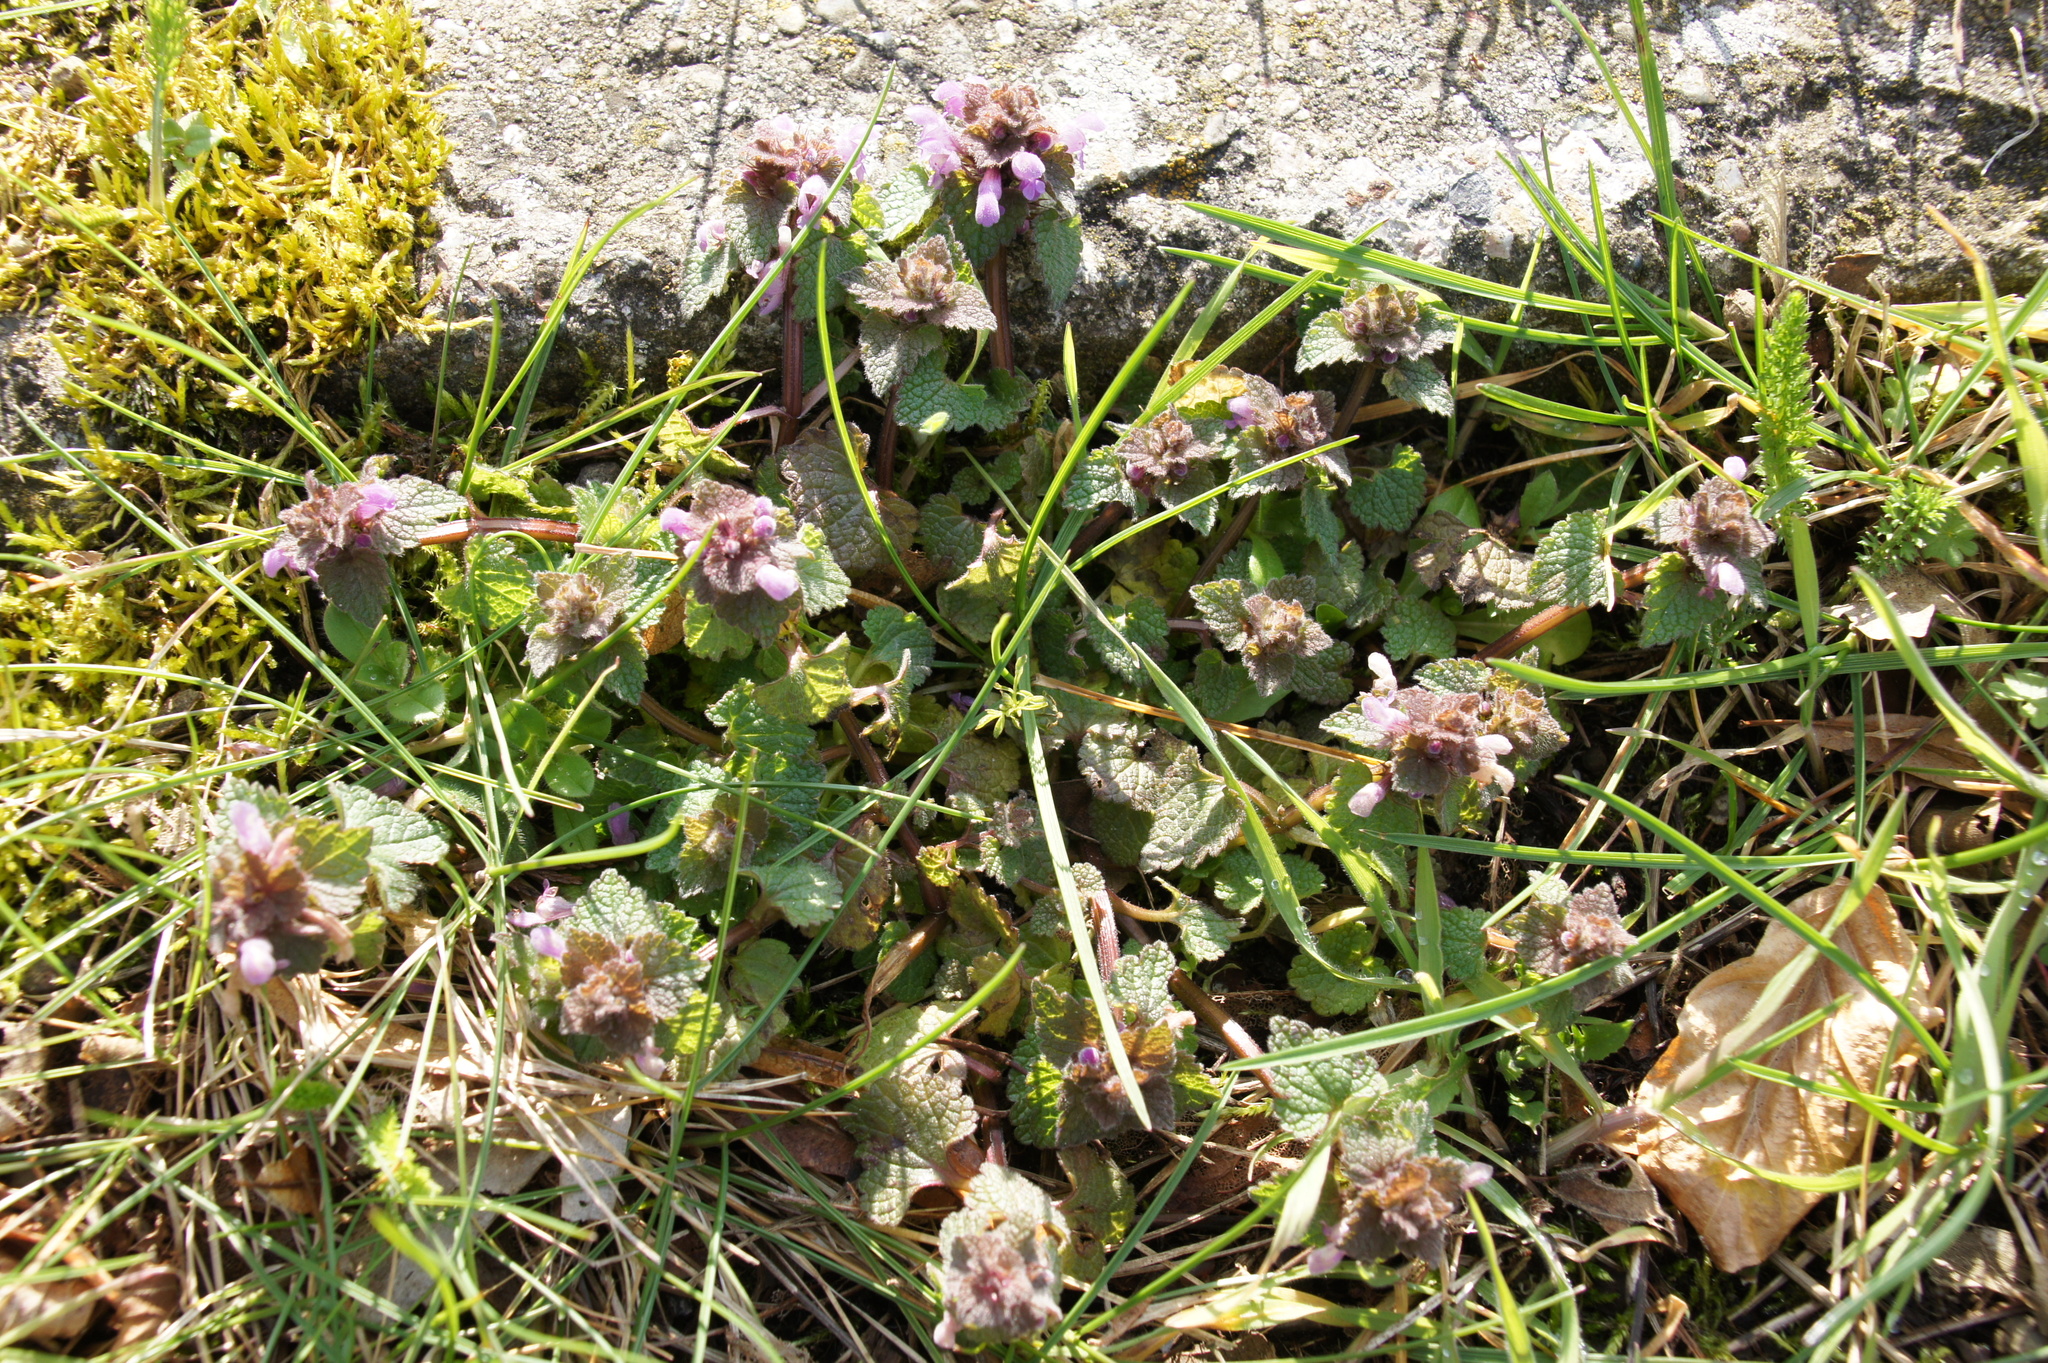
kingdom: Plantae
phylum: Tracheophyta
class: Magnoliopsida
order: Lamiales
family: Lamiaceae
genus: Lamium
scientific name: Lamium purpureum
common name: Red dead-nettle
